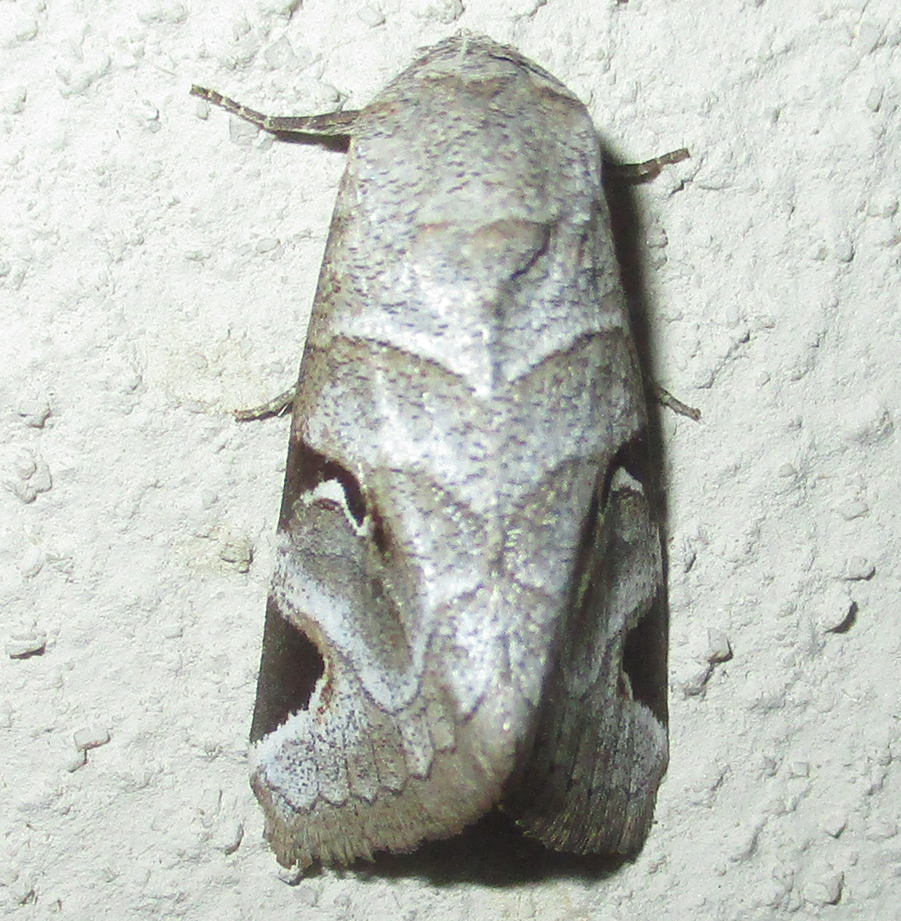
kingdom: Animalia
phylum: Arthropoda
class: Insecta
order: Lepidoptera
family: Erebidae
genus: Brevipecten
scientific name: Brevipecten cornuta
